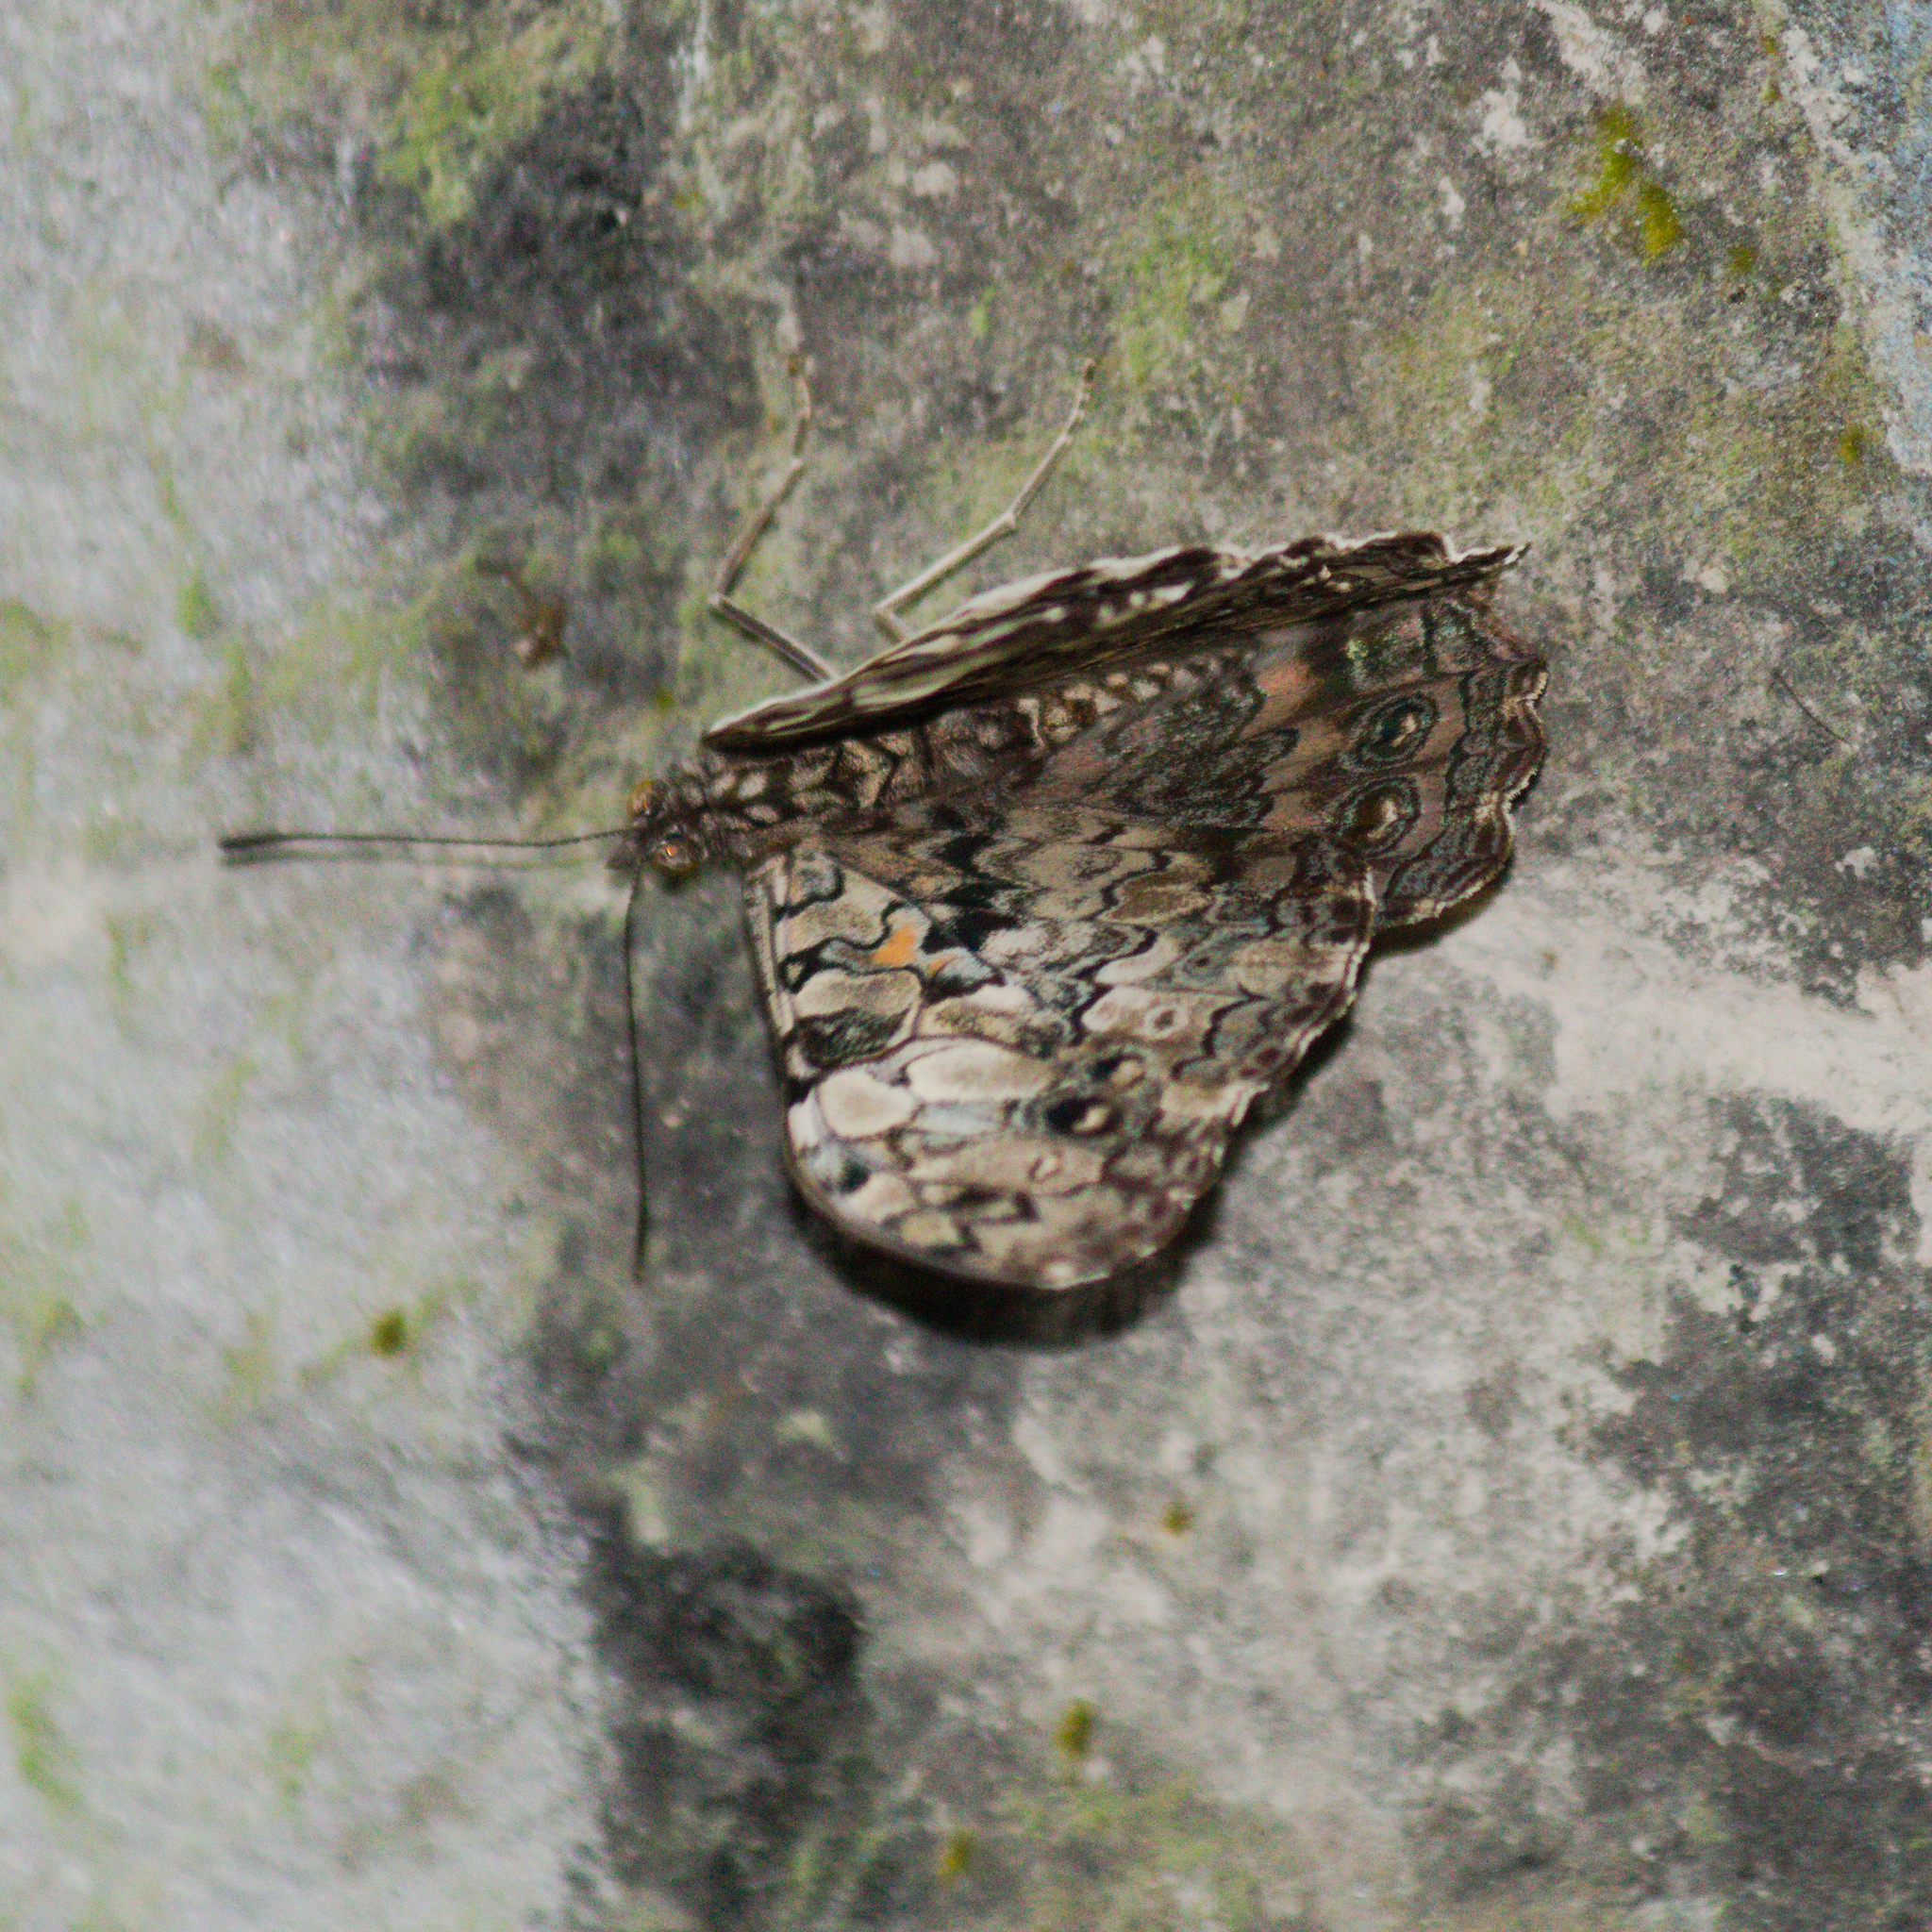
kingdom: Animalia
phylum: Arthropoda
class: Insecta
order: Lepidoptera
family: Nymphalidae
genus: Hamadryas
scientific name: Hamadryas epinome
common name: Epinome cracker
